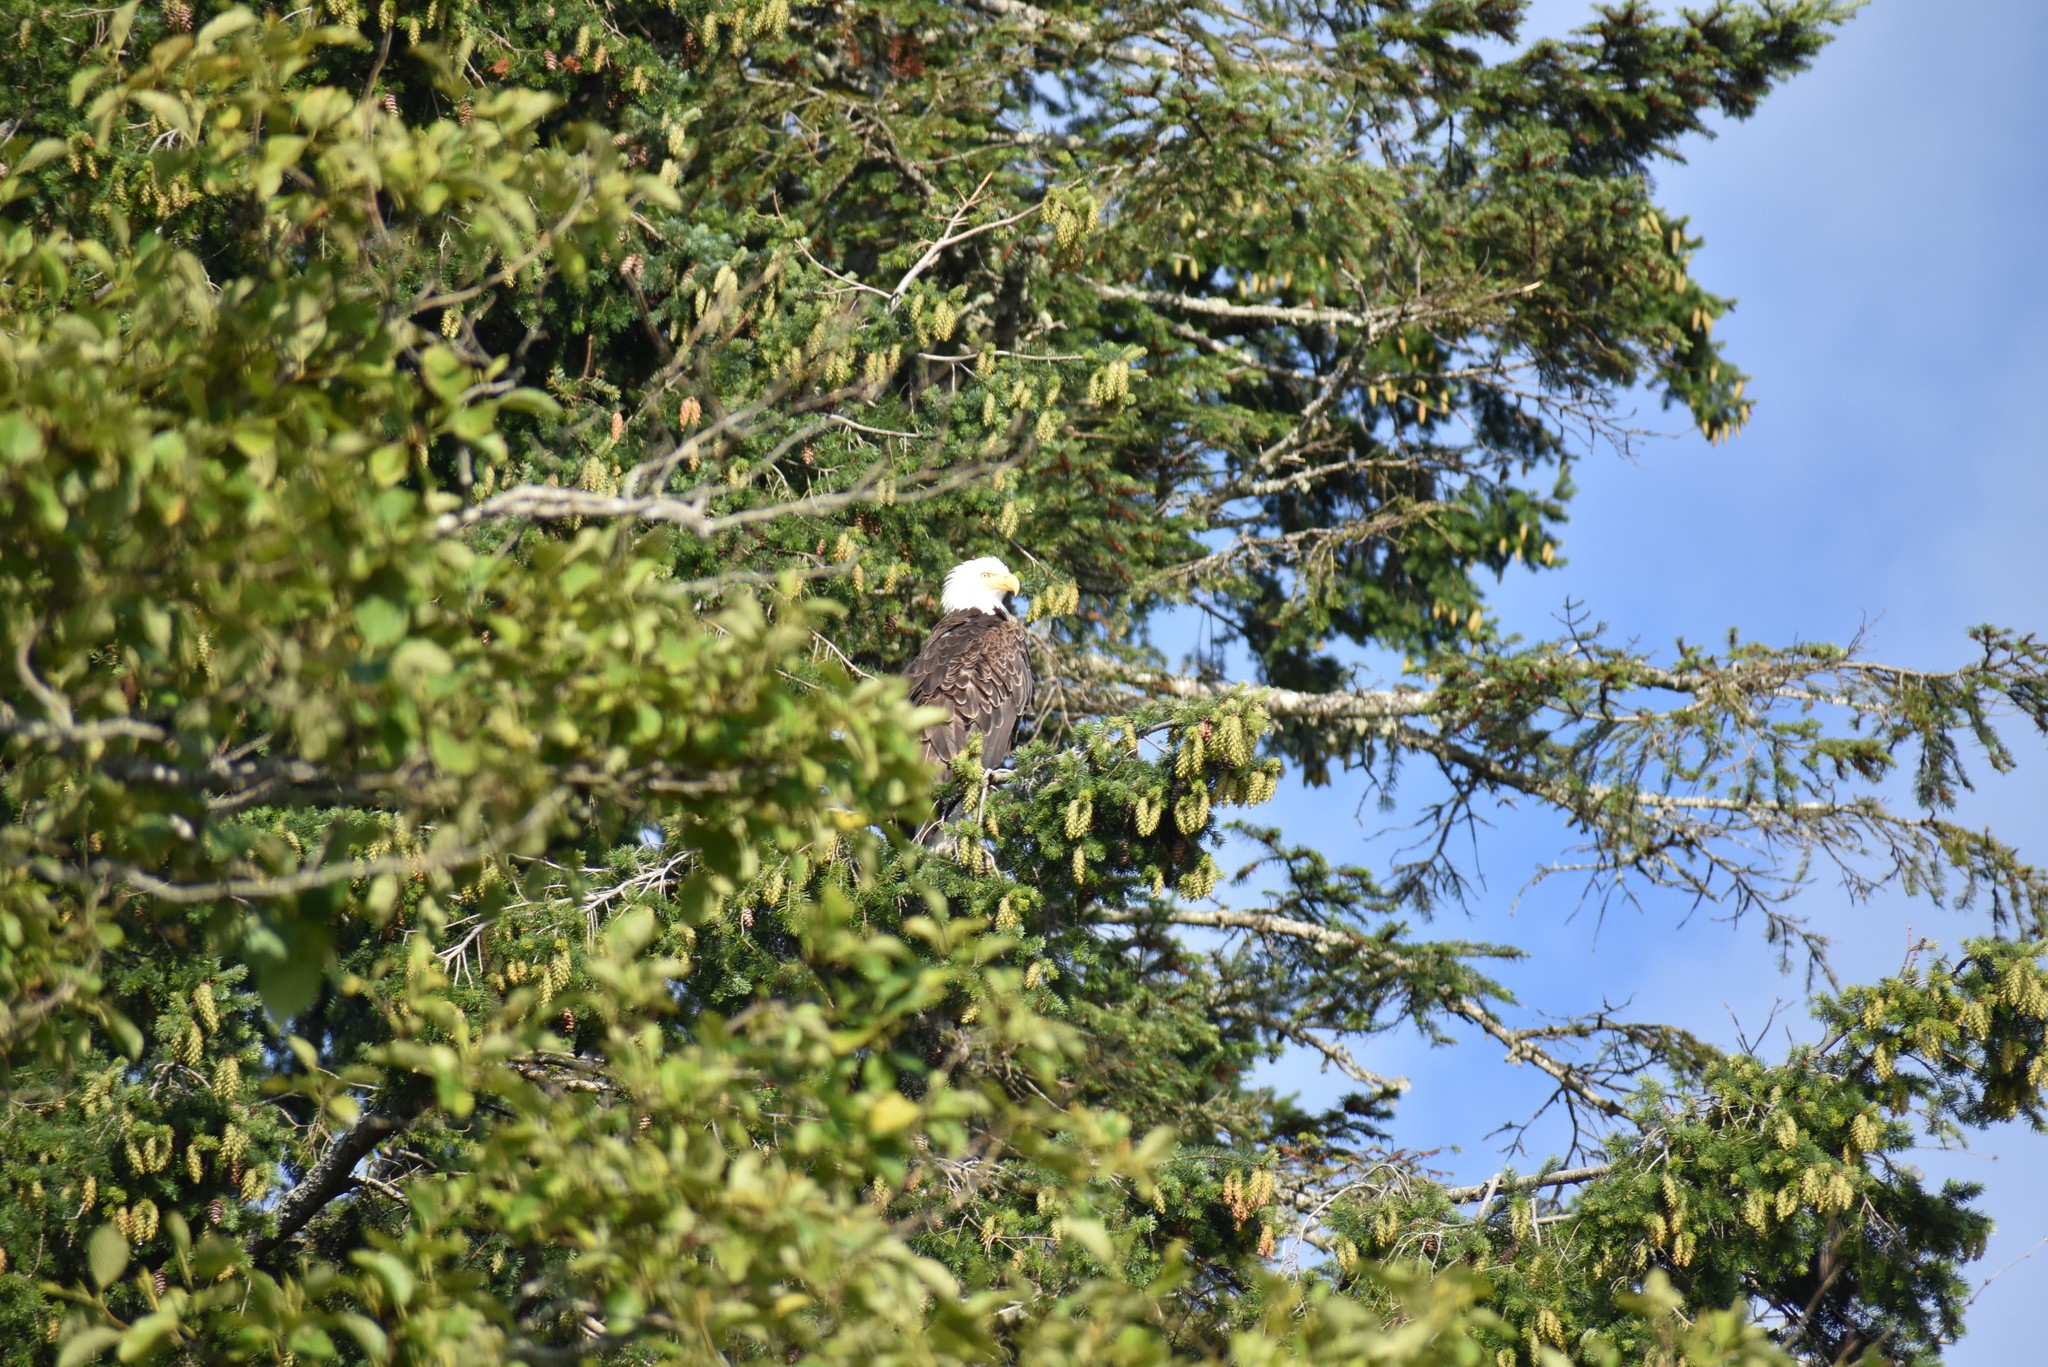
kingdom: Animalia
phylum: Chordata
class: Aves
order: Accipitriformes
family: Accipitridae
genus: Haliaeetus
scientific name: Haliaeetus leucocephalus
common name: Bald eagle
